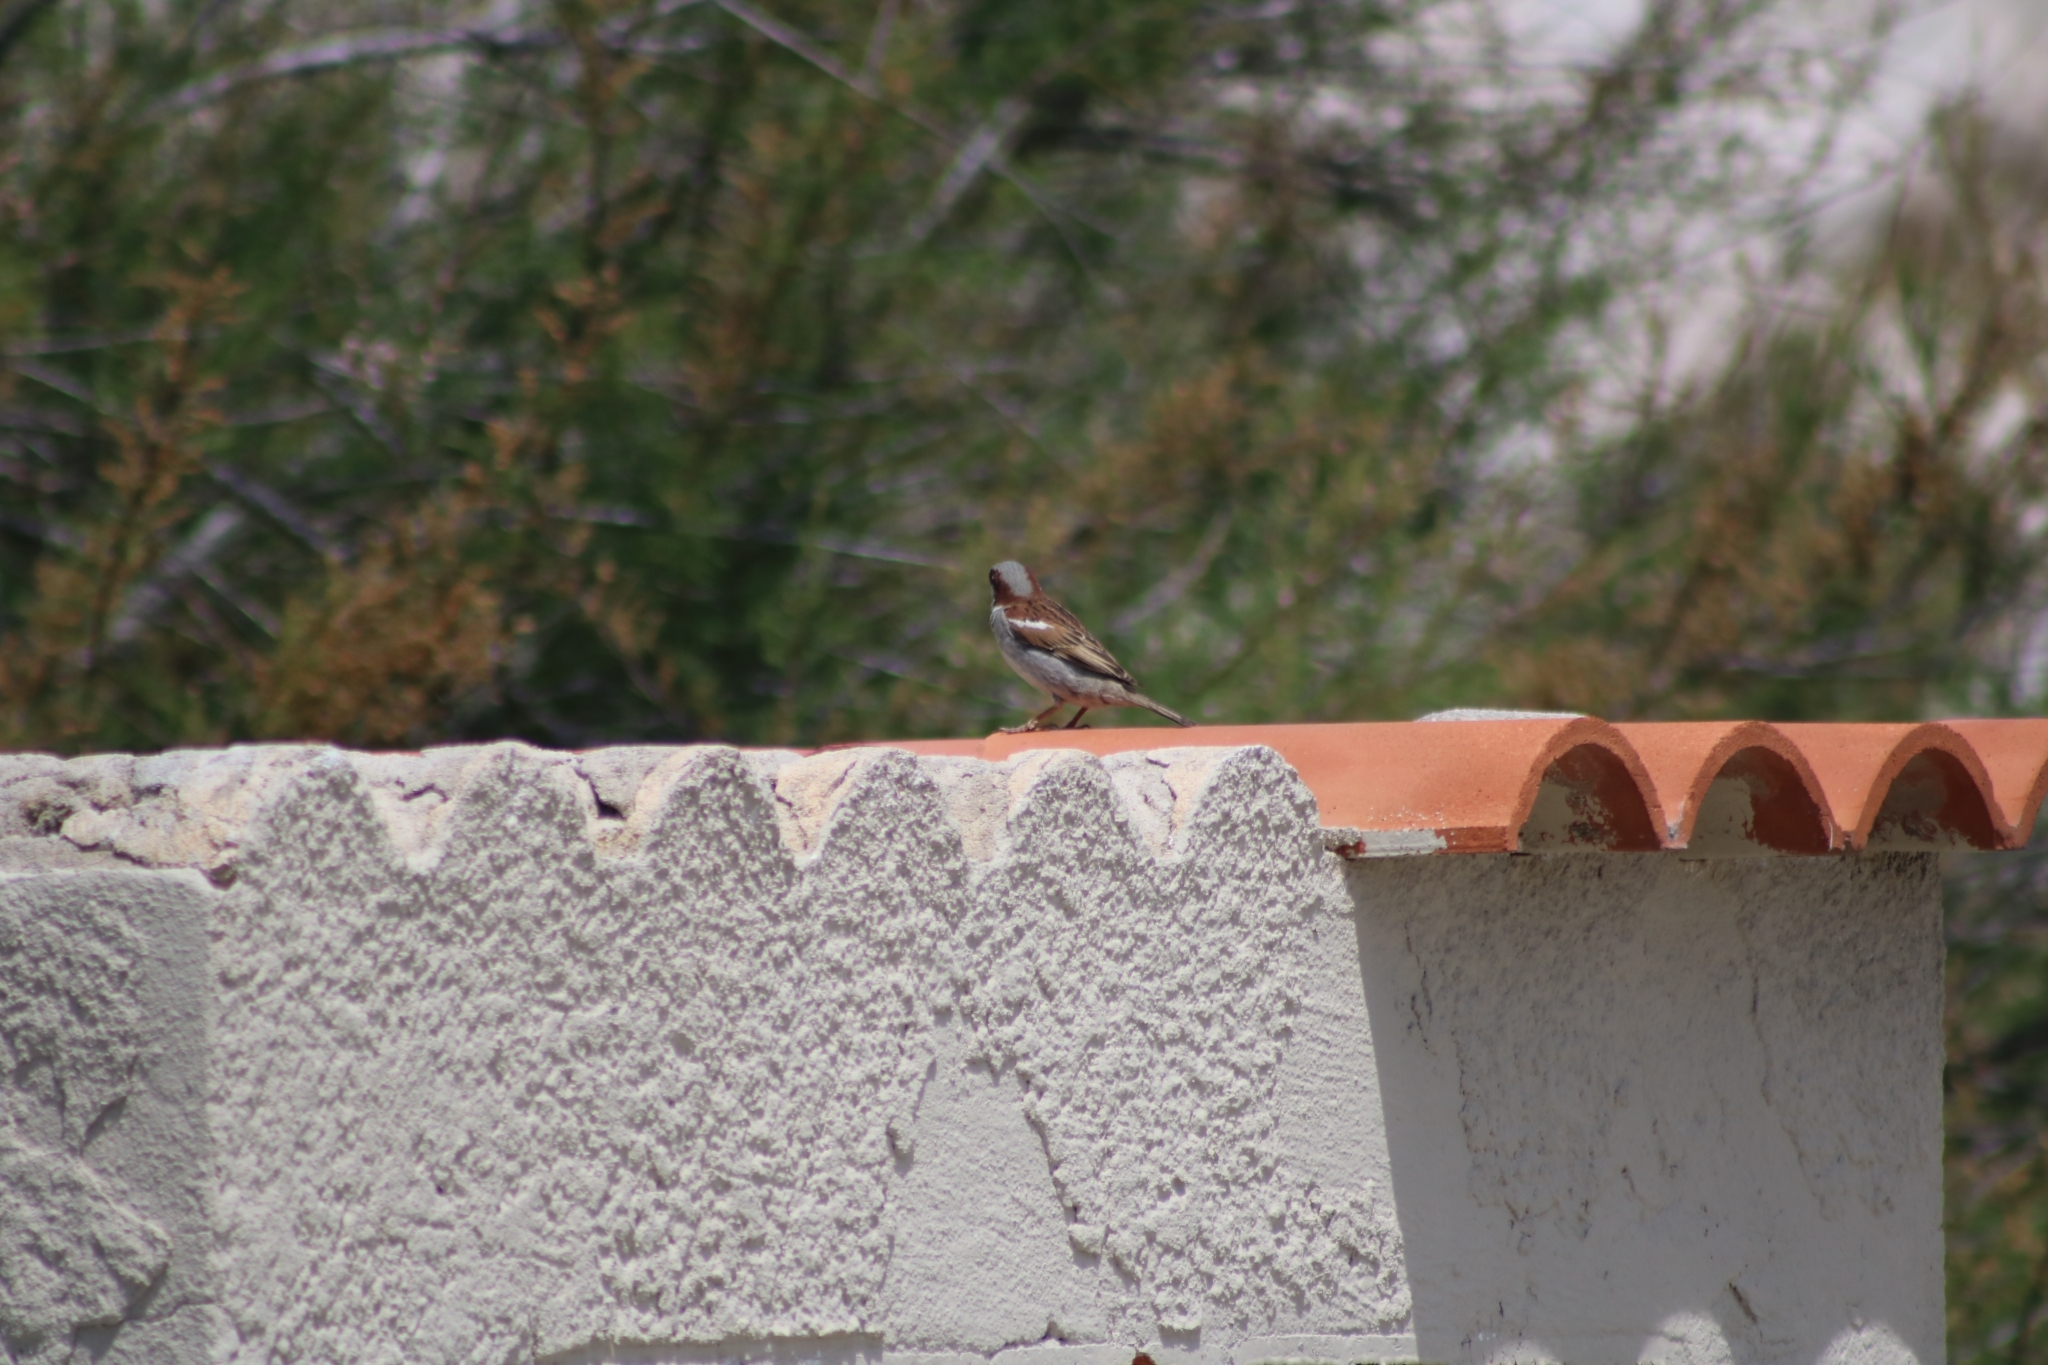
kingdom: Animalia
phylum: Chordata
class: Aves
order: Passeriformes
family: Passeridae
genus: Passer
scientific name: Passer domesticus
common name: House sparrow
